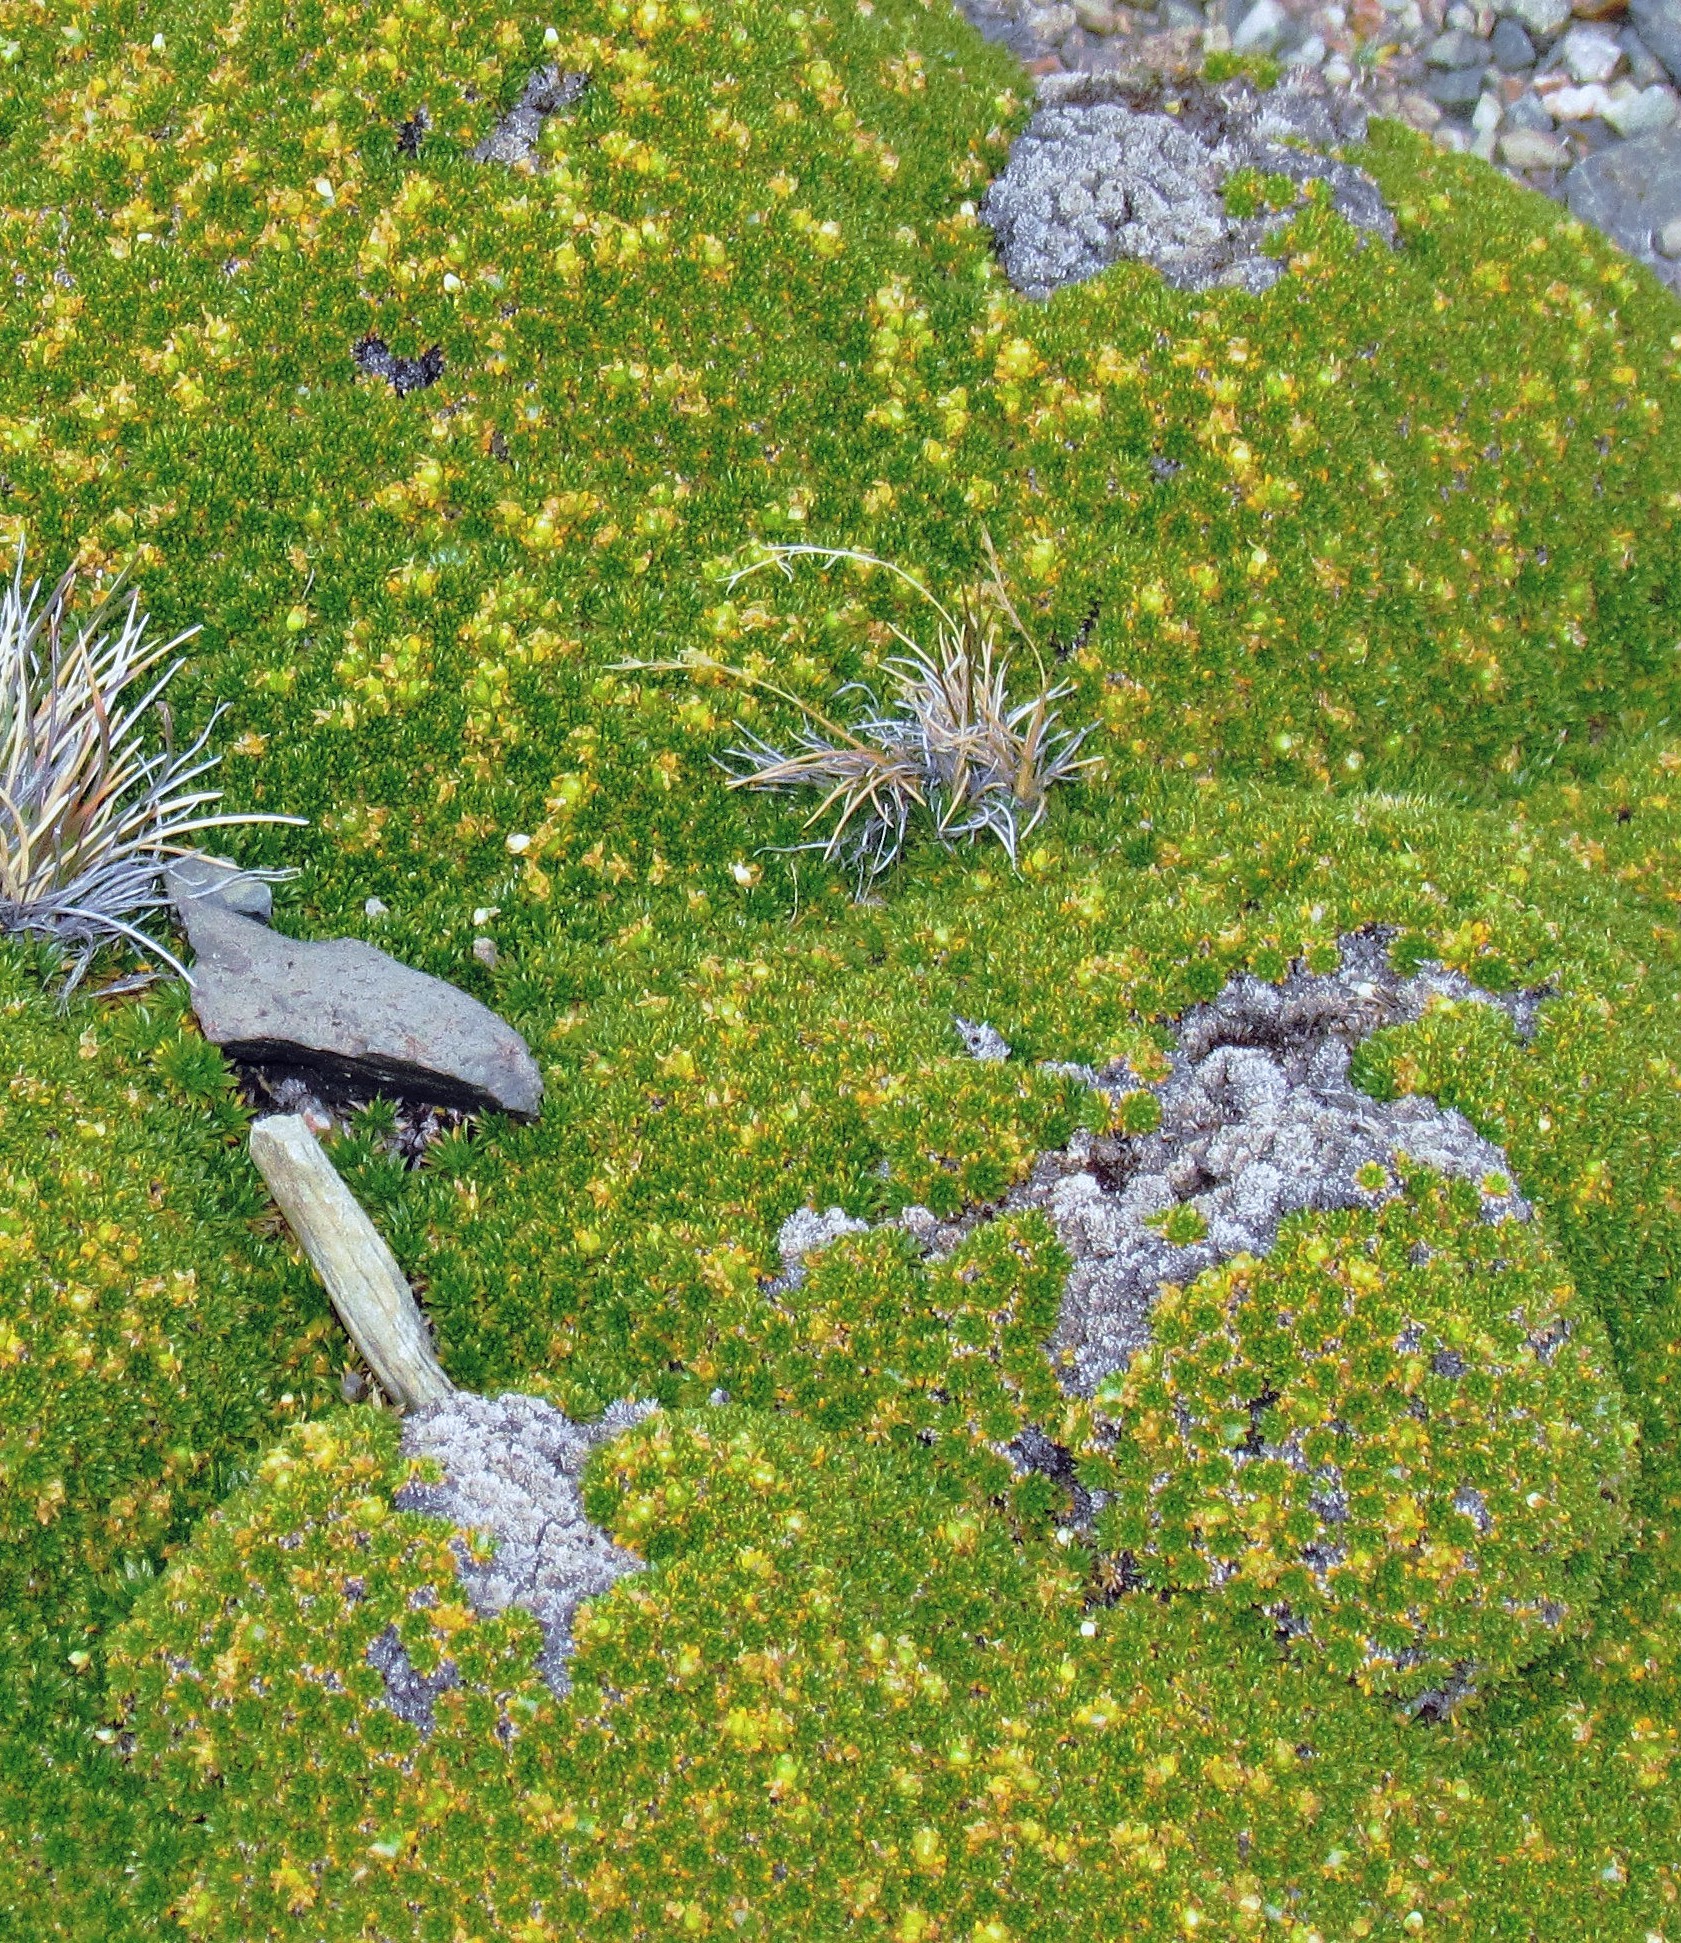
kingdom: Plantae
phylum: Tracheophyta
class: Magnoliopsida
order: Caryophyllales
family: Caryophyllaceae
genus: Colobanthus
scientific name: Colobanthus subulatus
